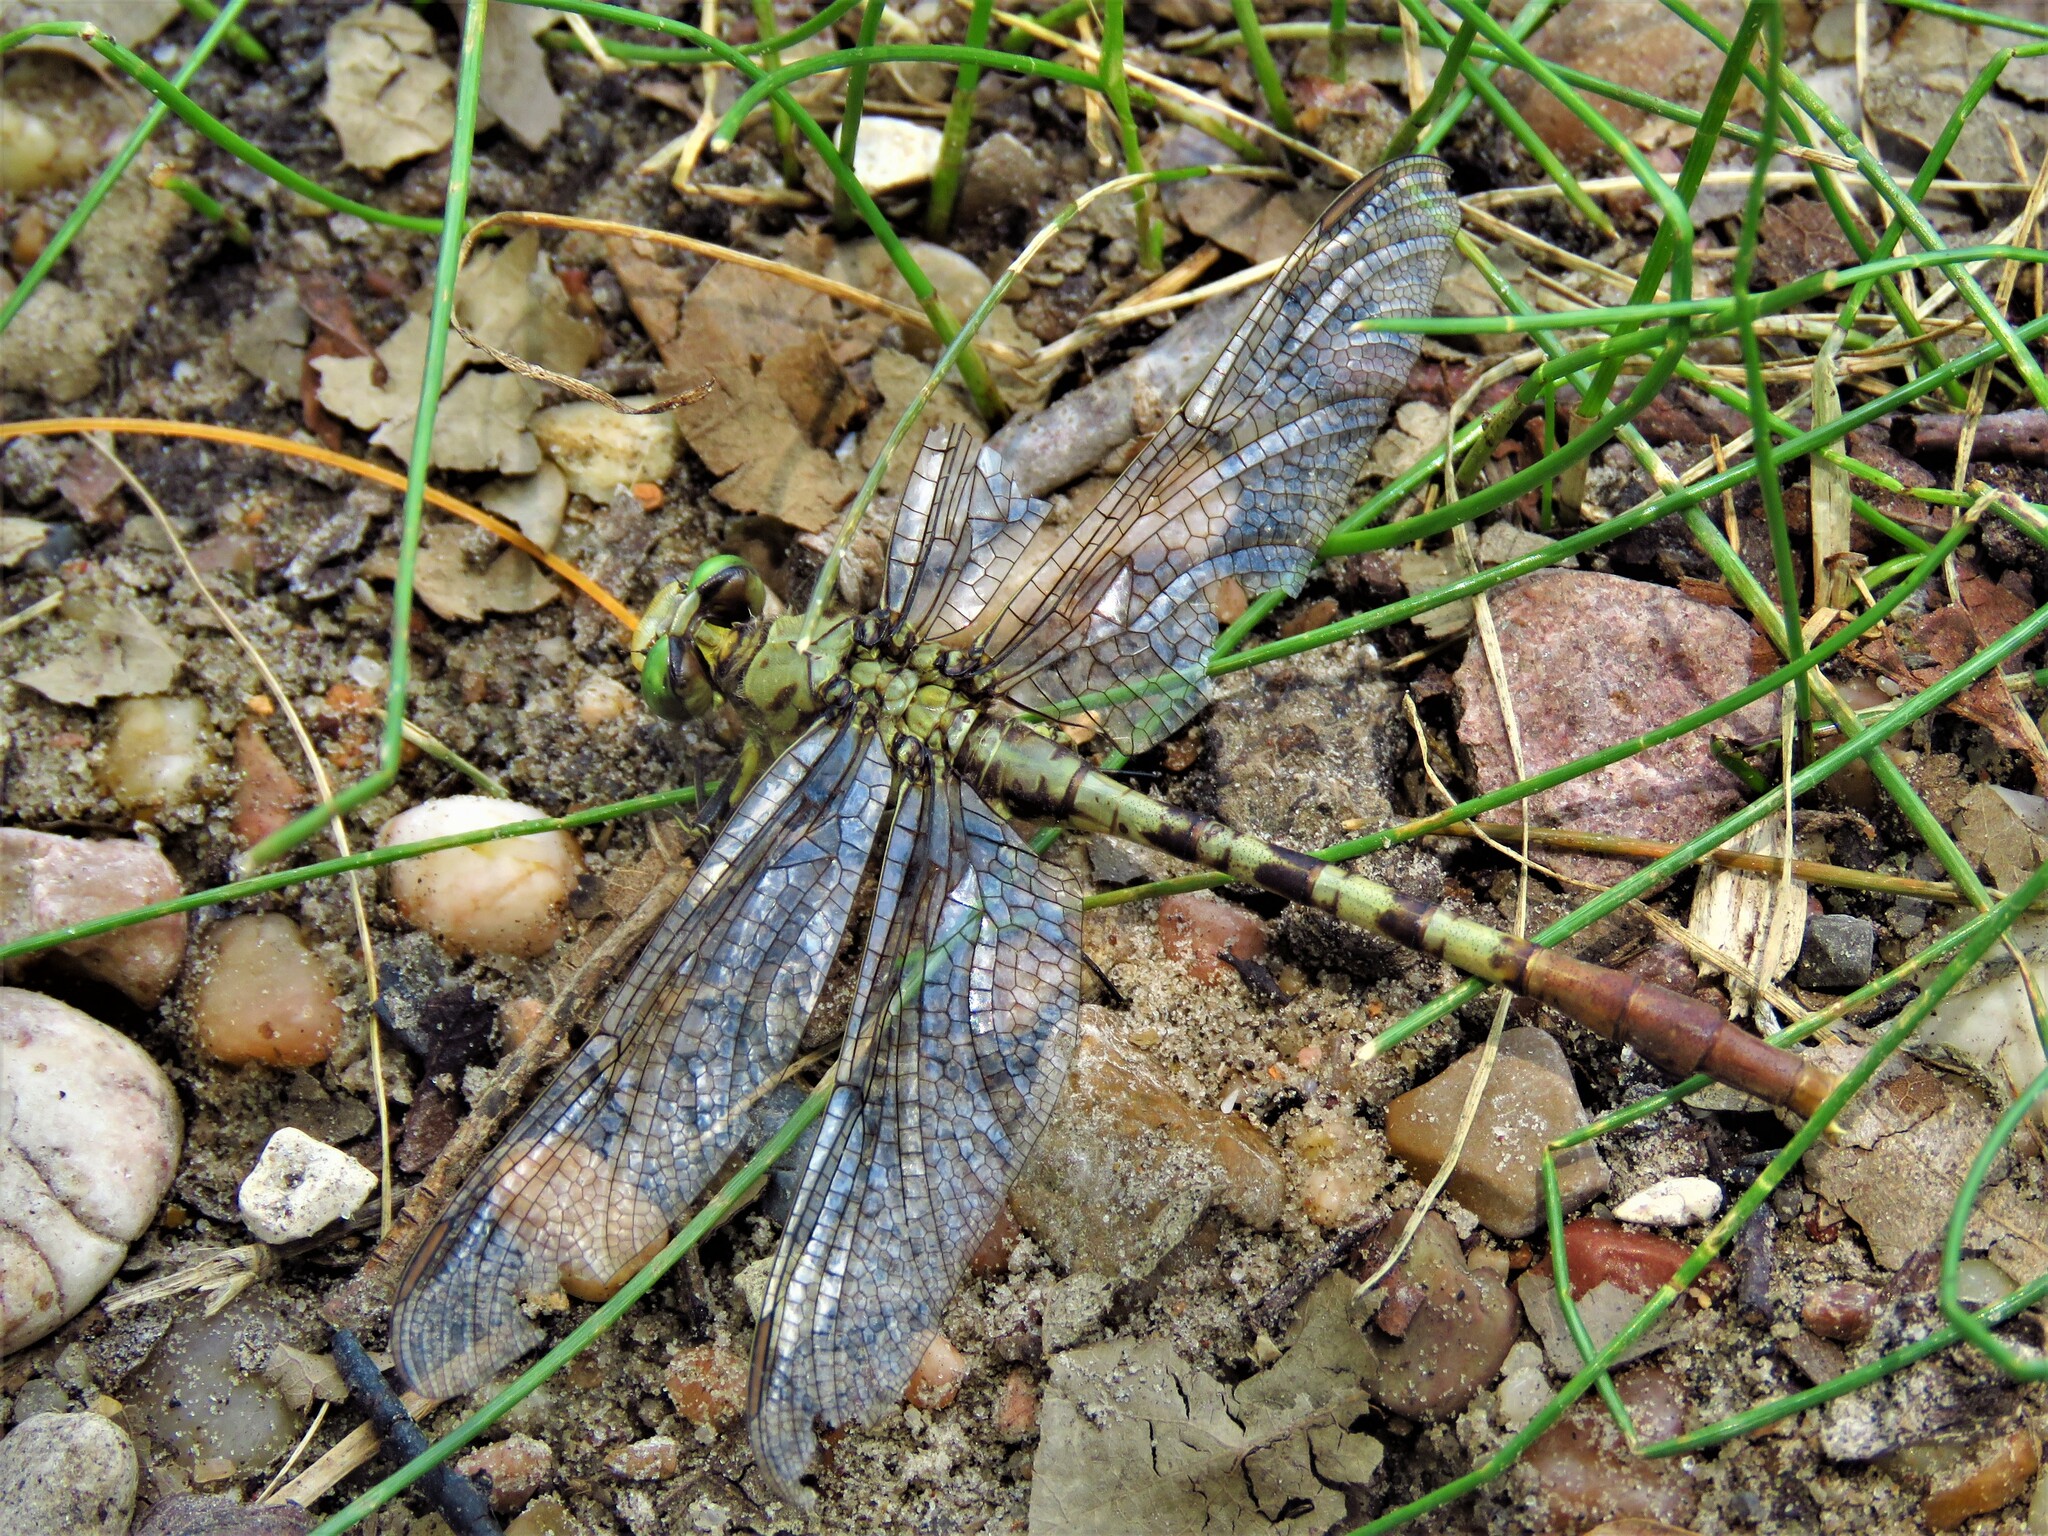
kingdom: Animalia
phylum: Arthropoda
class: Insecta
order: Odonata
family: Gomphidae
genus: Arigomphus
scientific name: Arigomphus submedianus
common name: Jade clubtail
